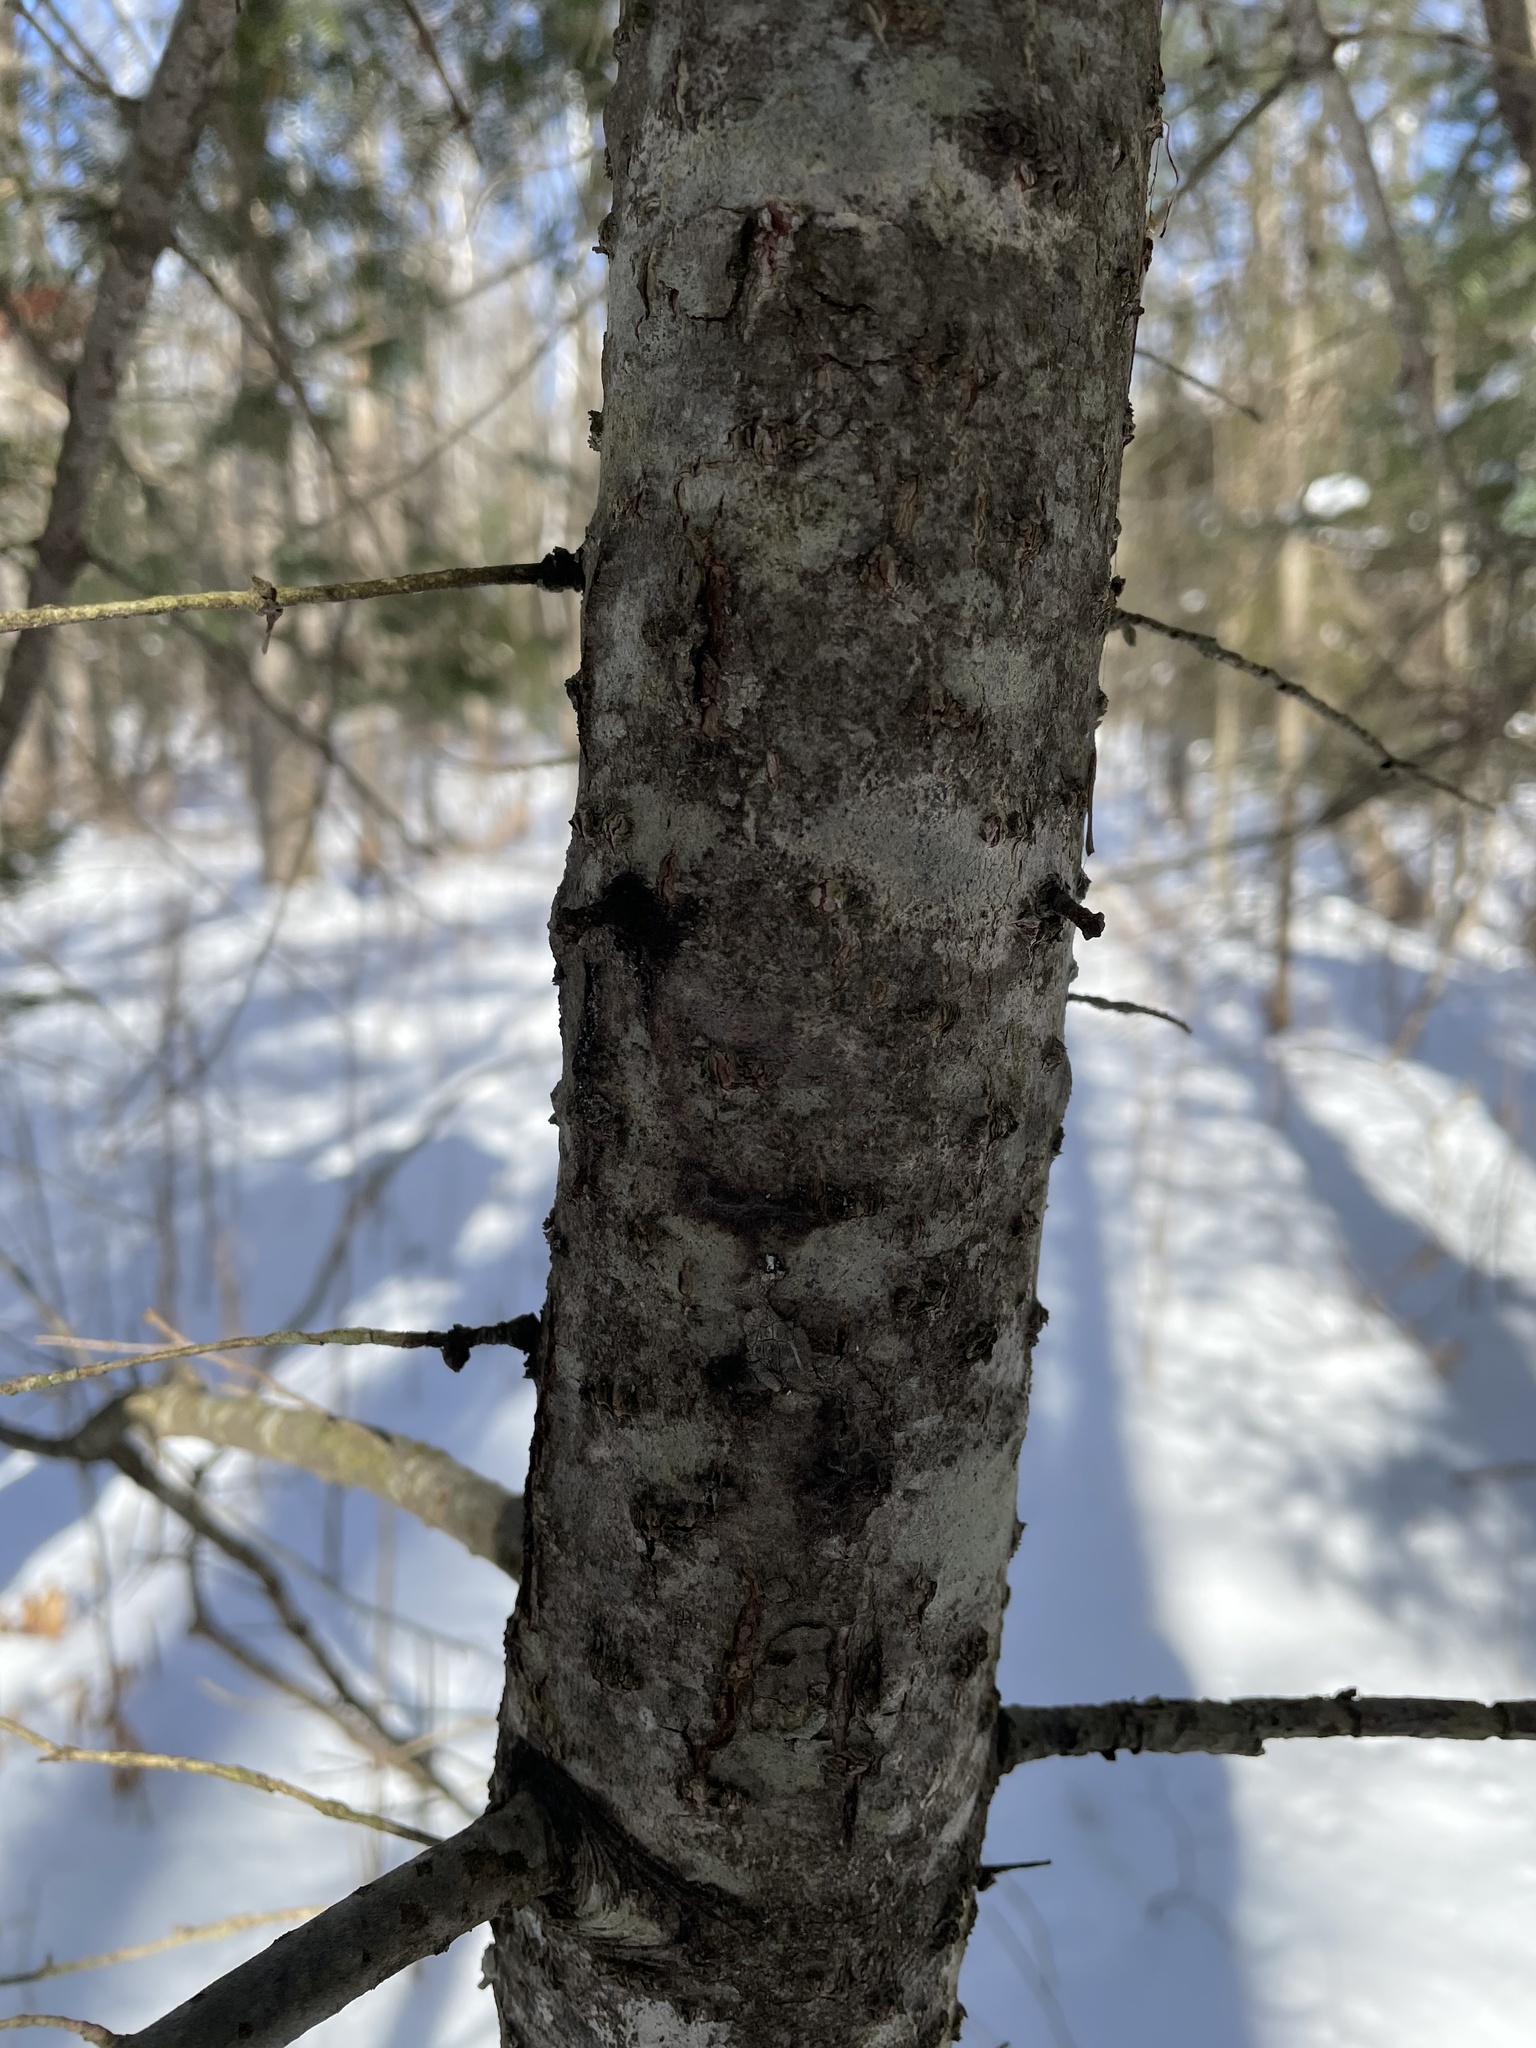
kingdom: Plantae
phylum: Tracheophyta
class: Pinopsida
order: Pinales
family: Pinaceae
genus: Abies
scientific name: Abies balsamea
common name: Balsam fir
